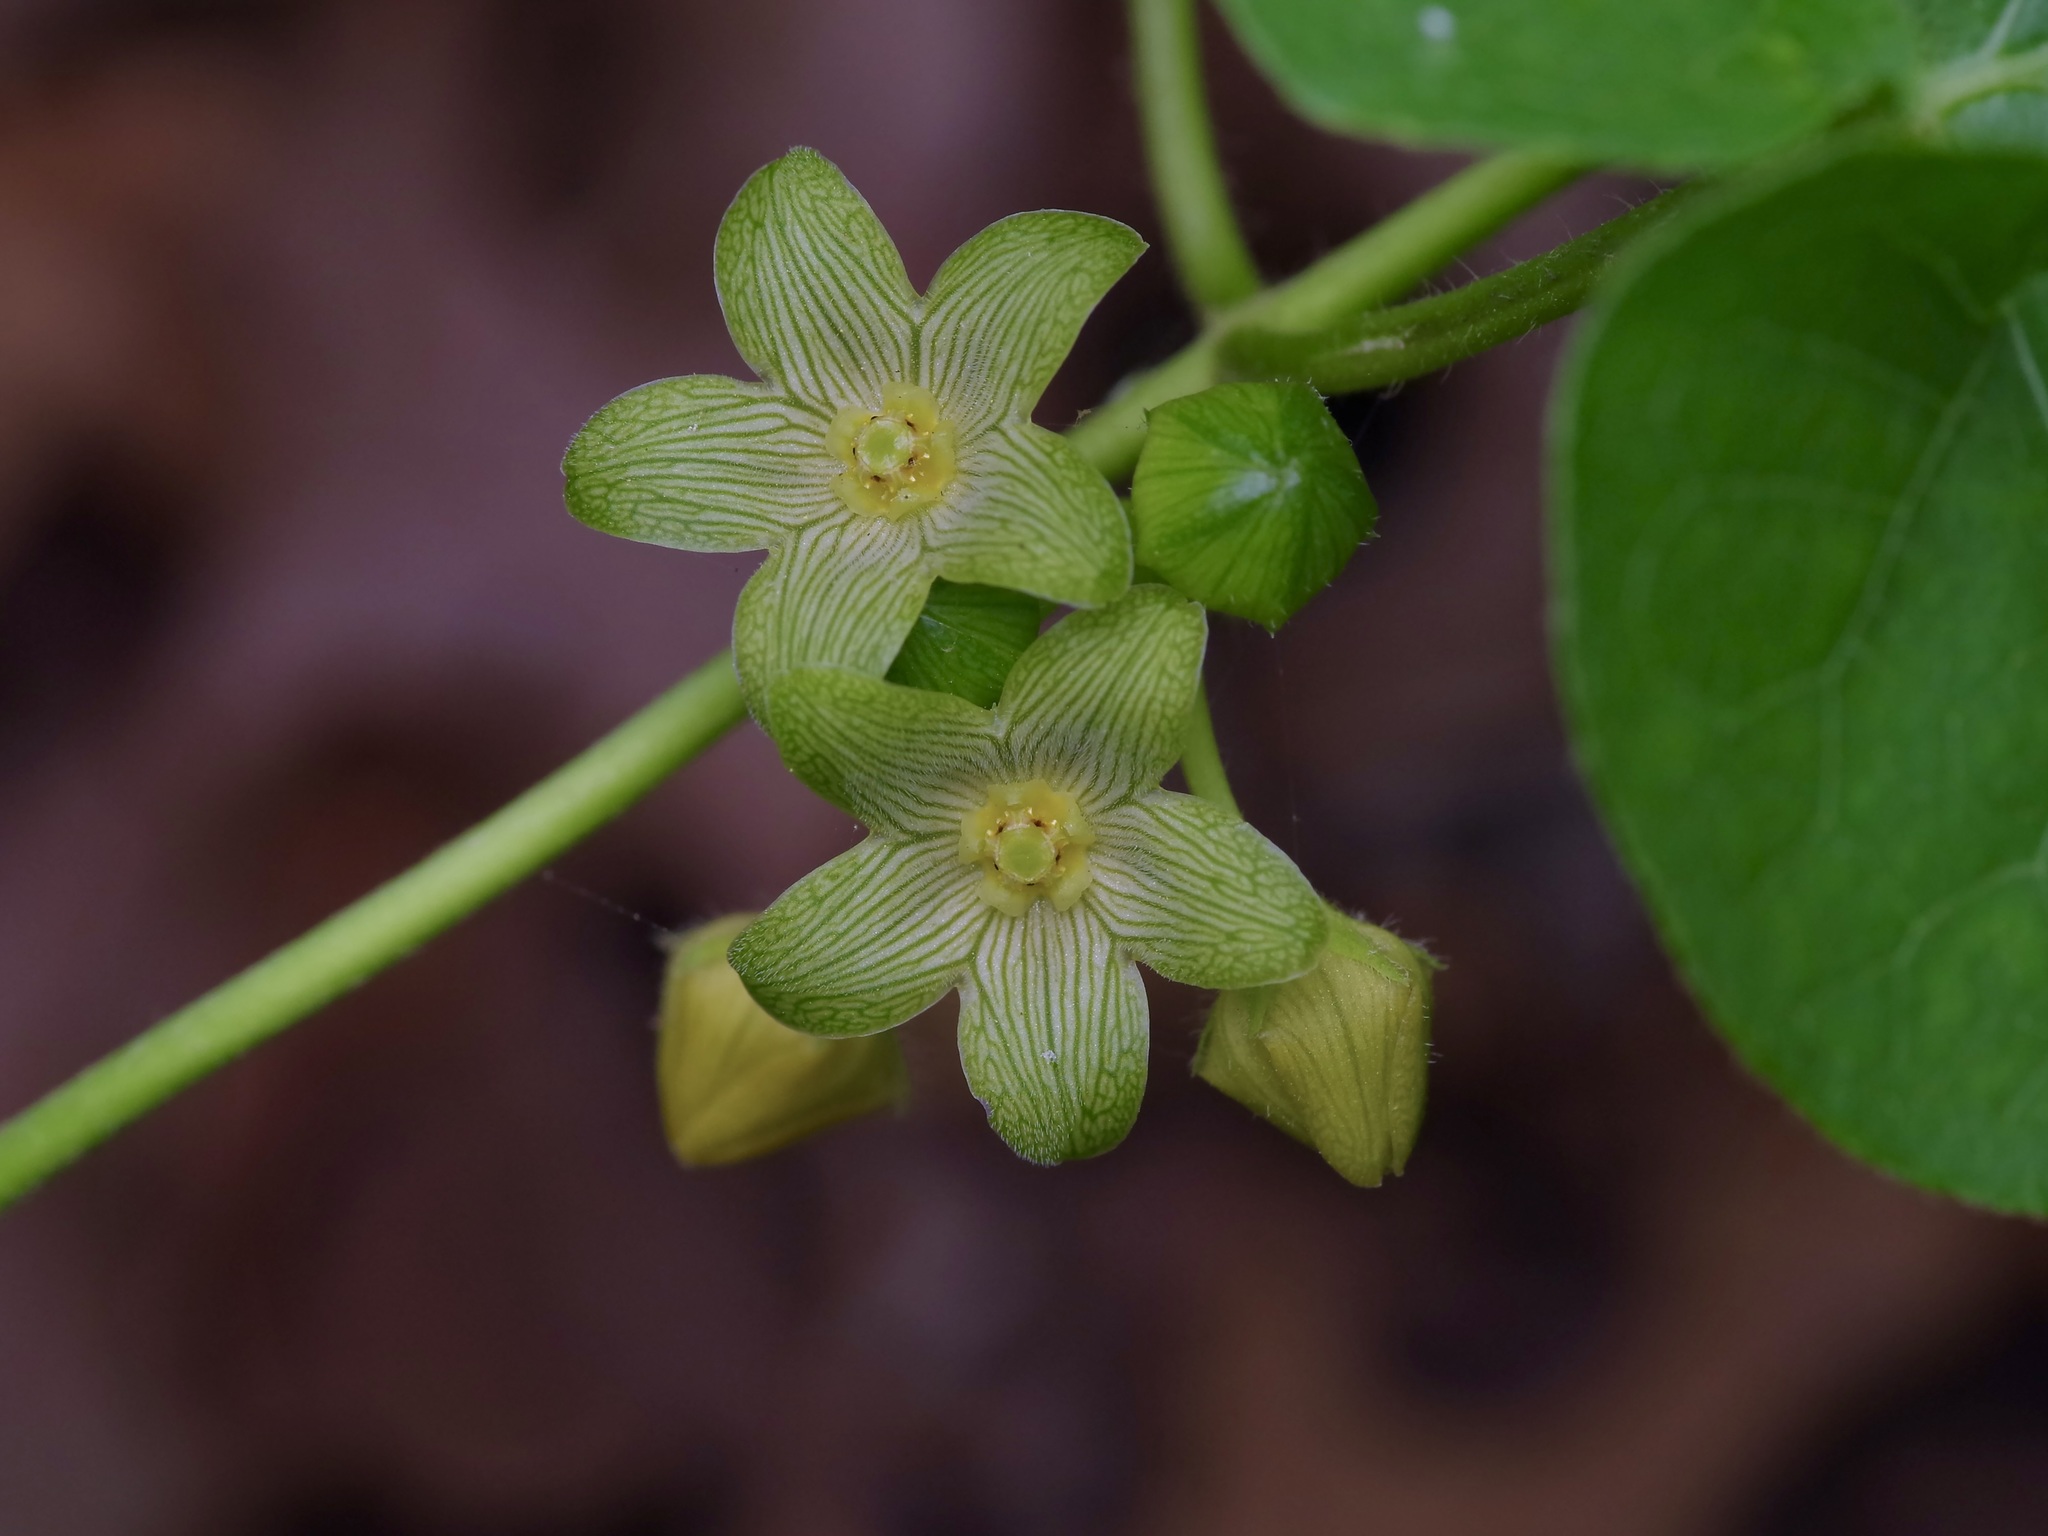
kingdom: Plantae
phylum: Tracheophyta
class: Magnoliopsida
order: Gentianales
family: Apocynaceae
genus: Matelea
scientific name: Matelea edwardsensis
